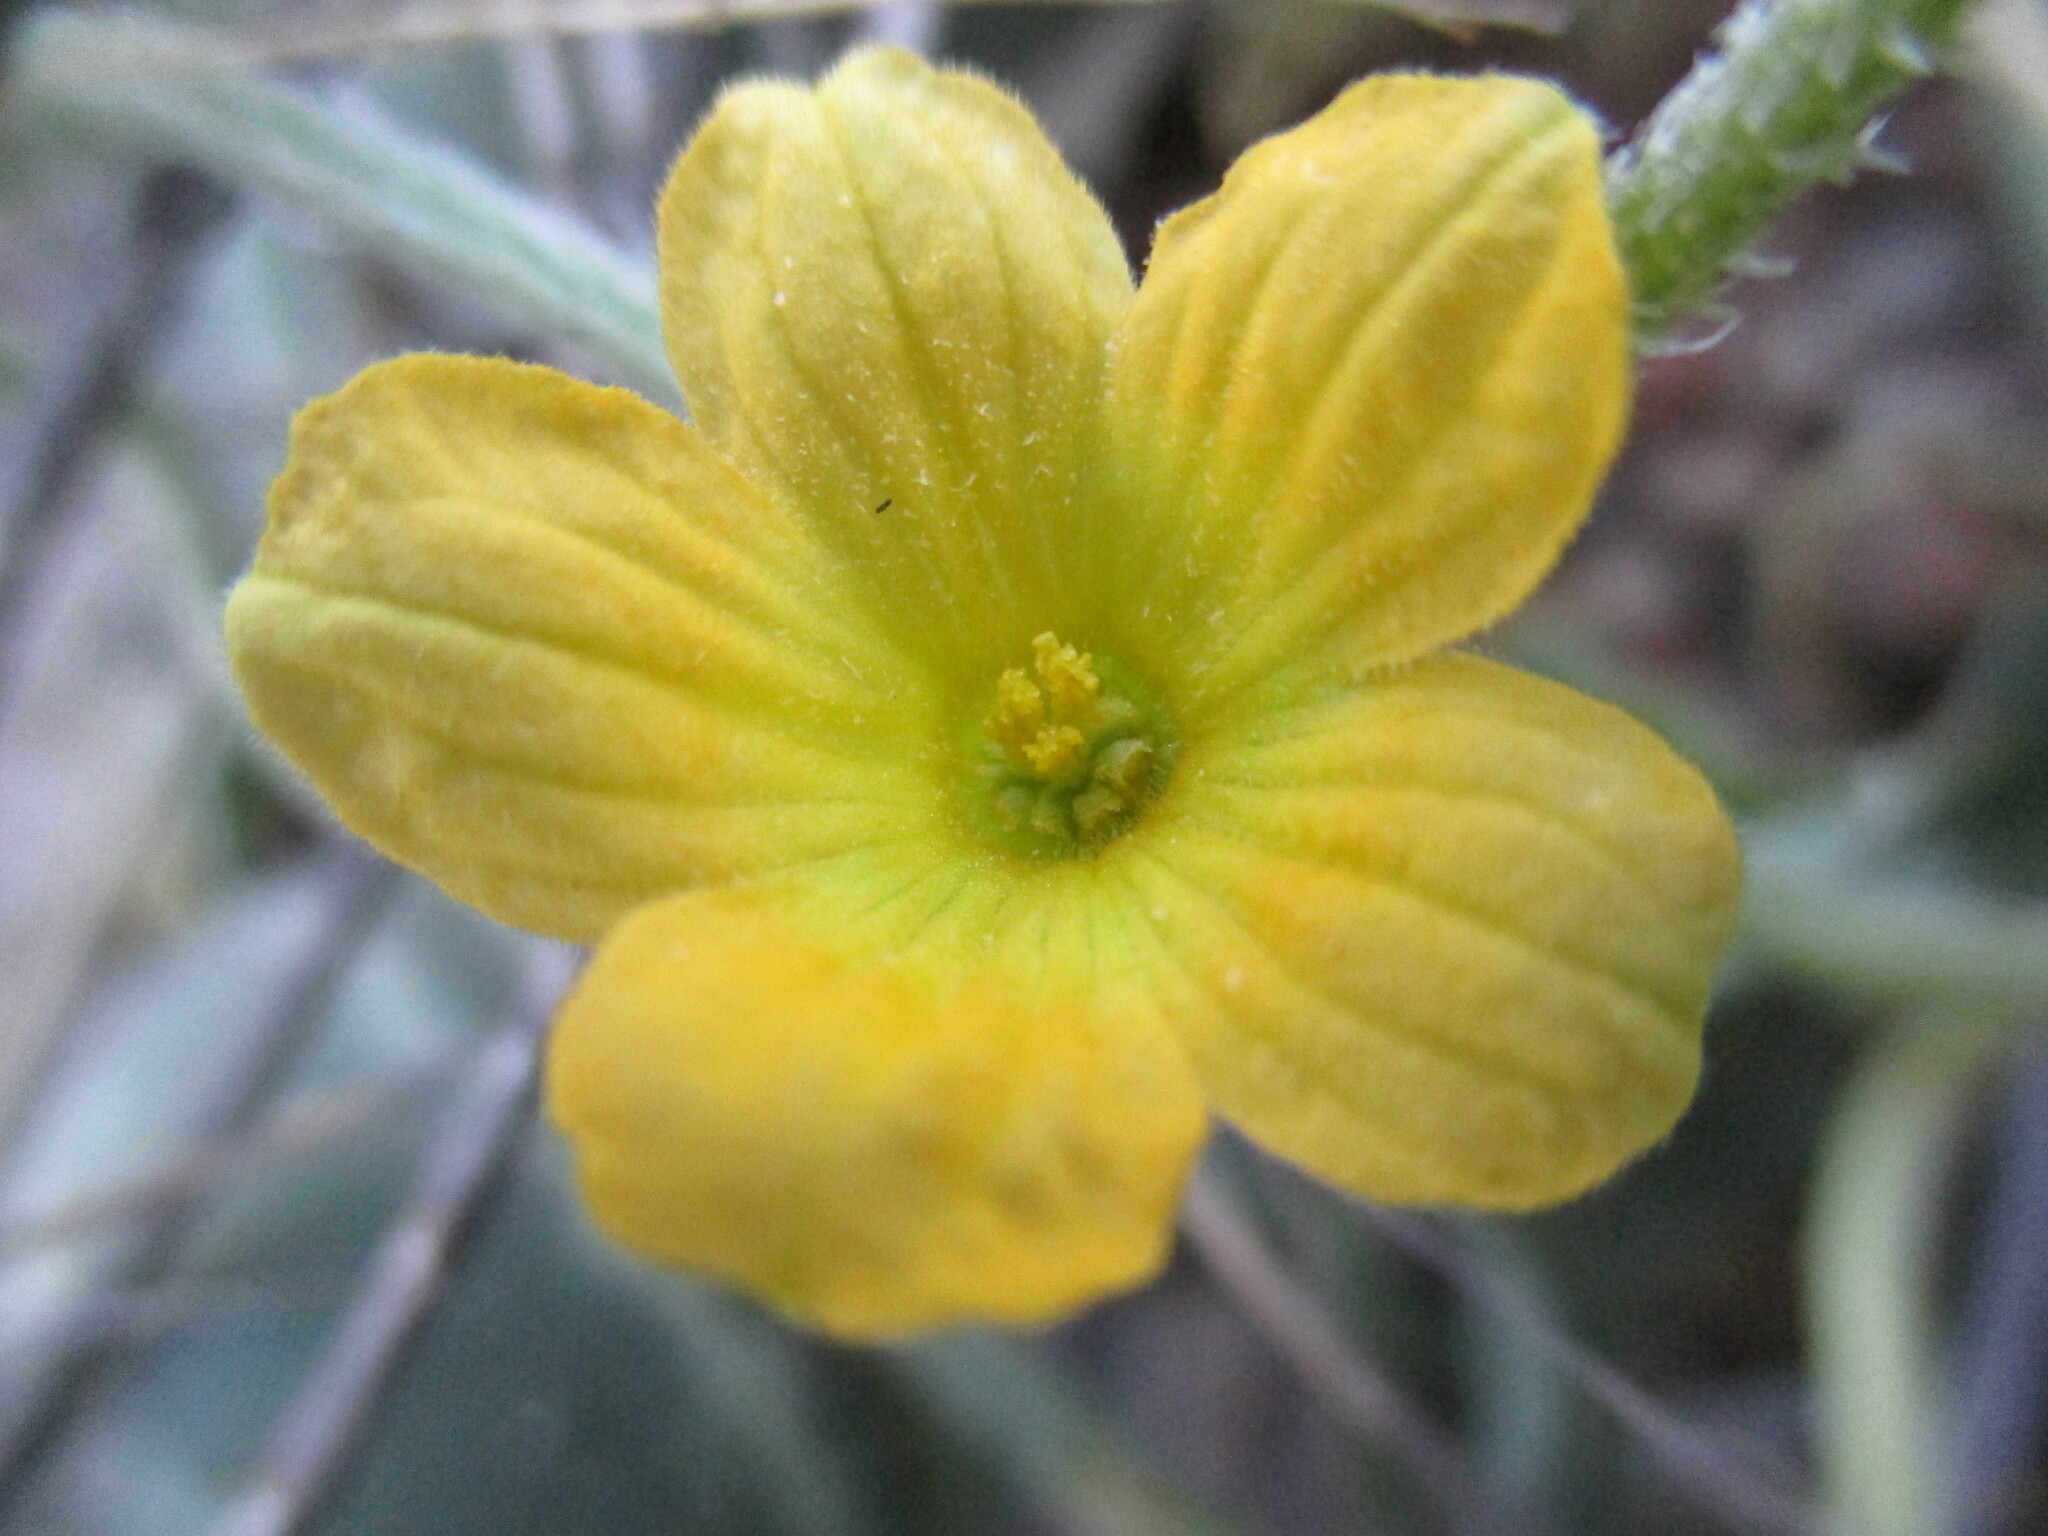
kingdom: Plantae
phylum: Tracheophyta
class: Magnoliopsida
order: Cucurbitales
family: Cucurbitaceae
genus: Cucumis
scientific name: Cucumis sagittatus
